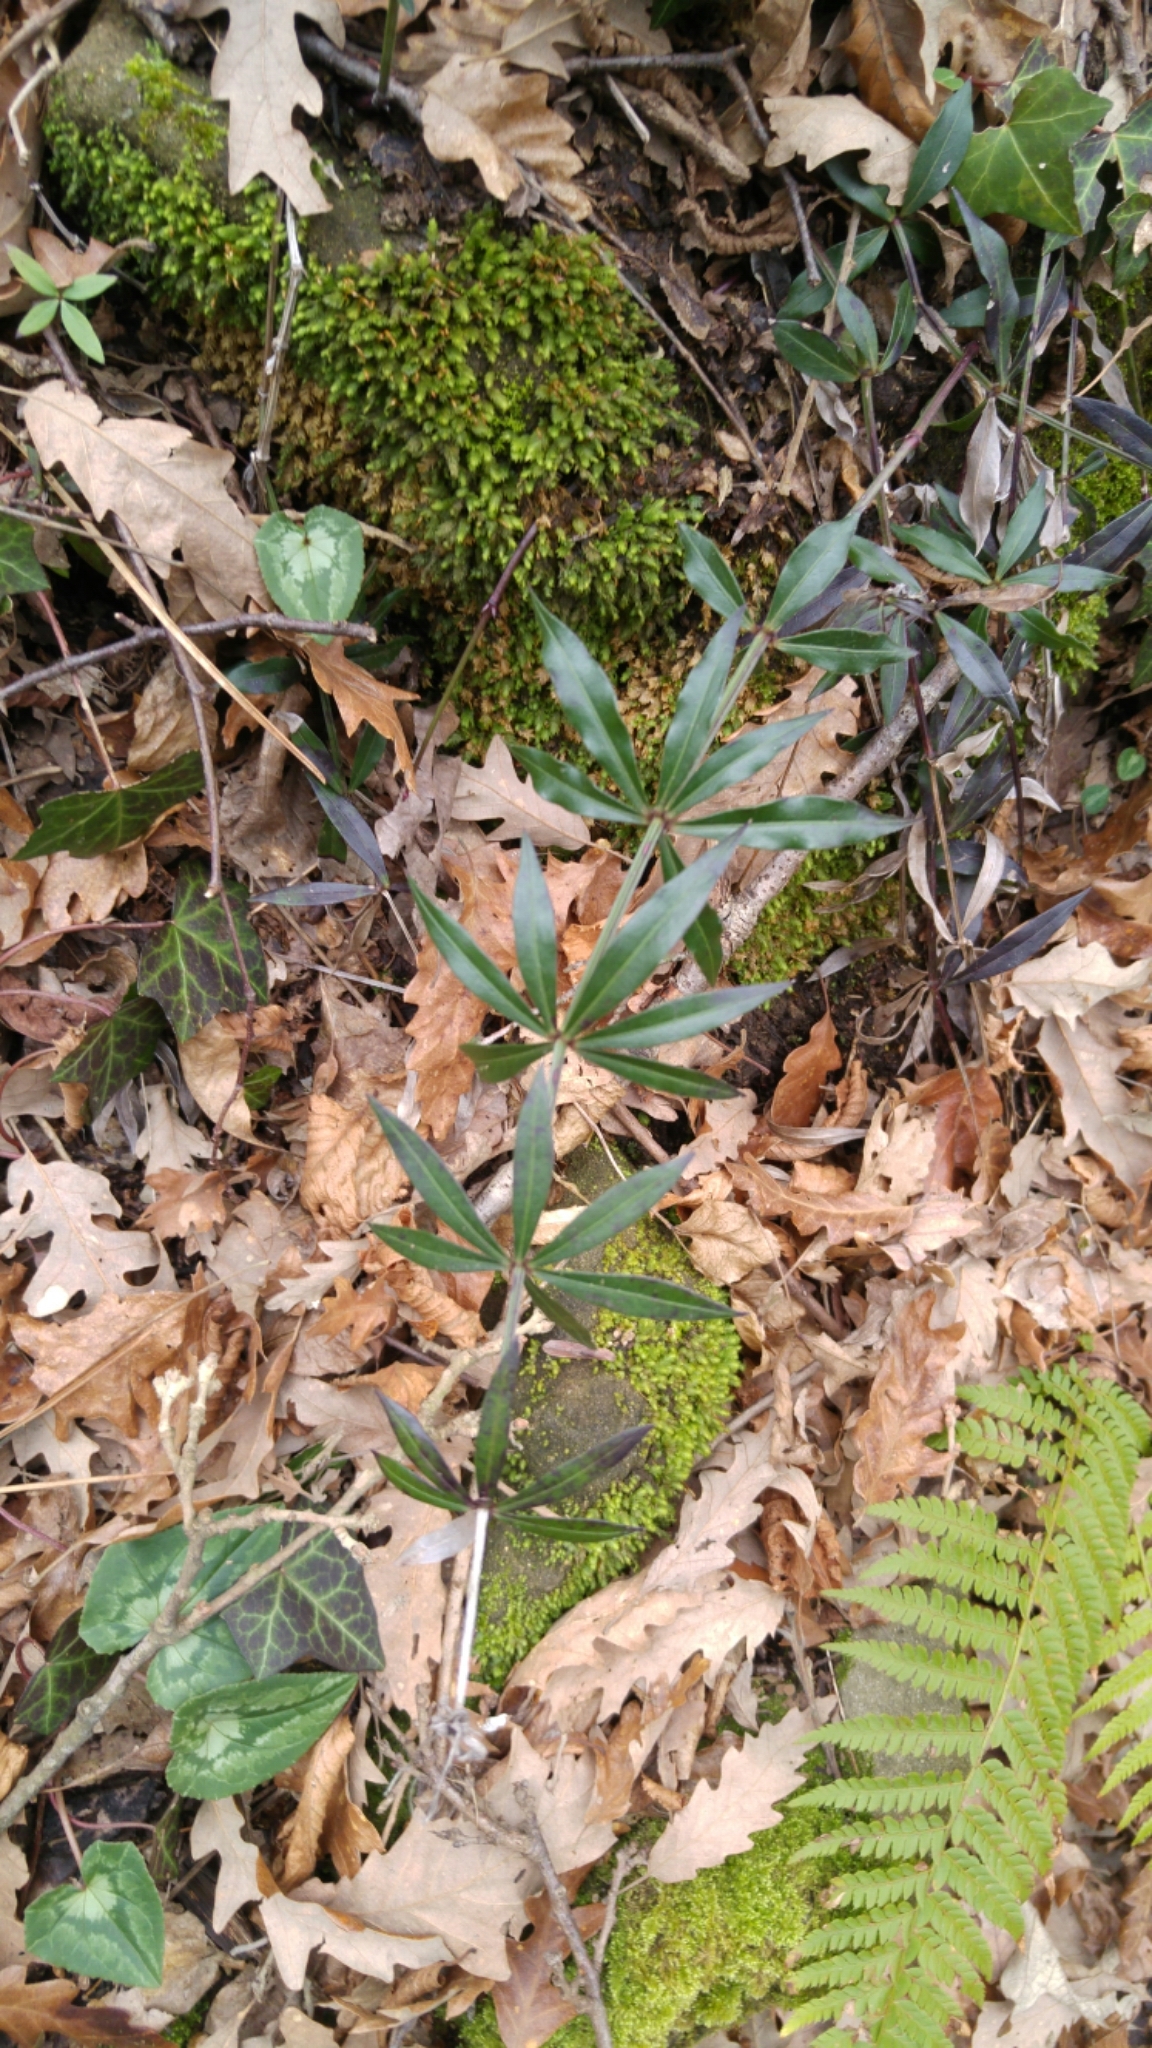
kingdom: Plantae
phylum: Tracheophyta
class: Magnoliopsida
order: Gentianales
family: Rubiaceae
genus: Rubia
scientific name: Rubia peregrina
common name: Wild madder
